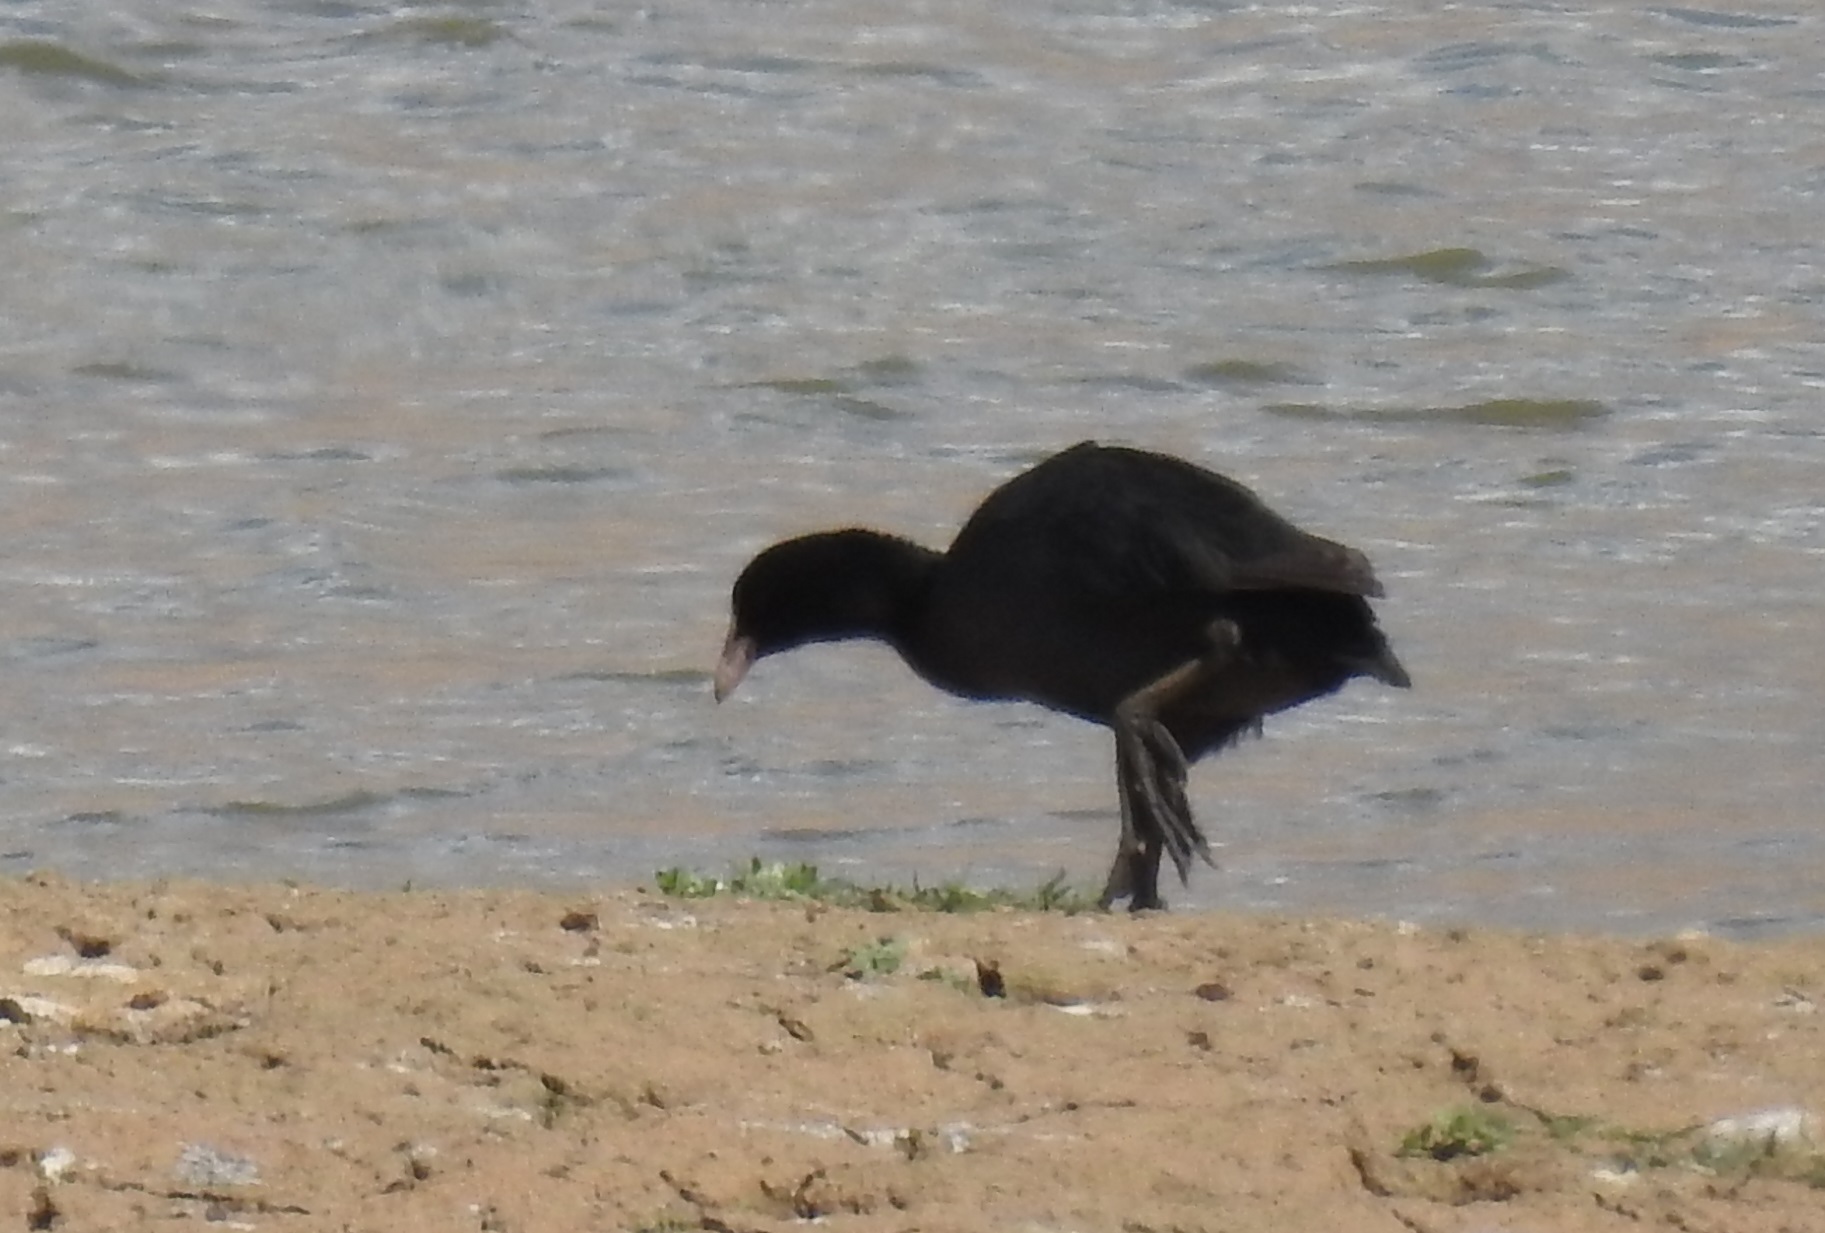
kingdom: Animalia
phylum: Chordata
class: Aves
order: Gruiformes
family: Rallidae
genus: Fulica
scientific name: Fulica atra
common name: Eurasian coot
